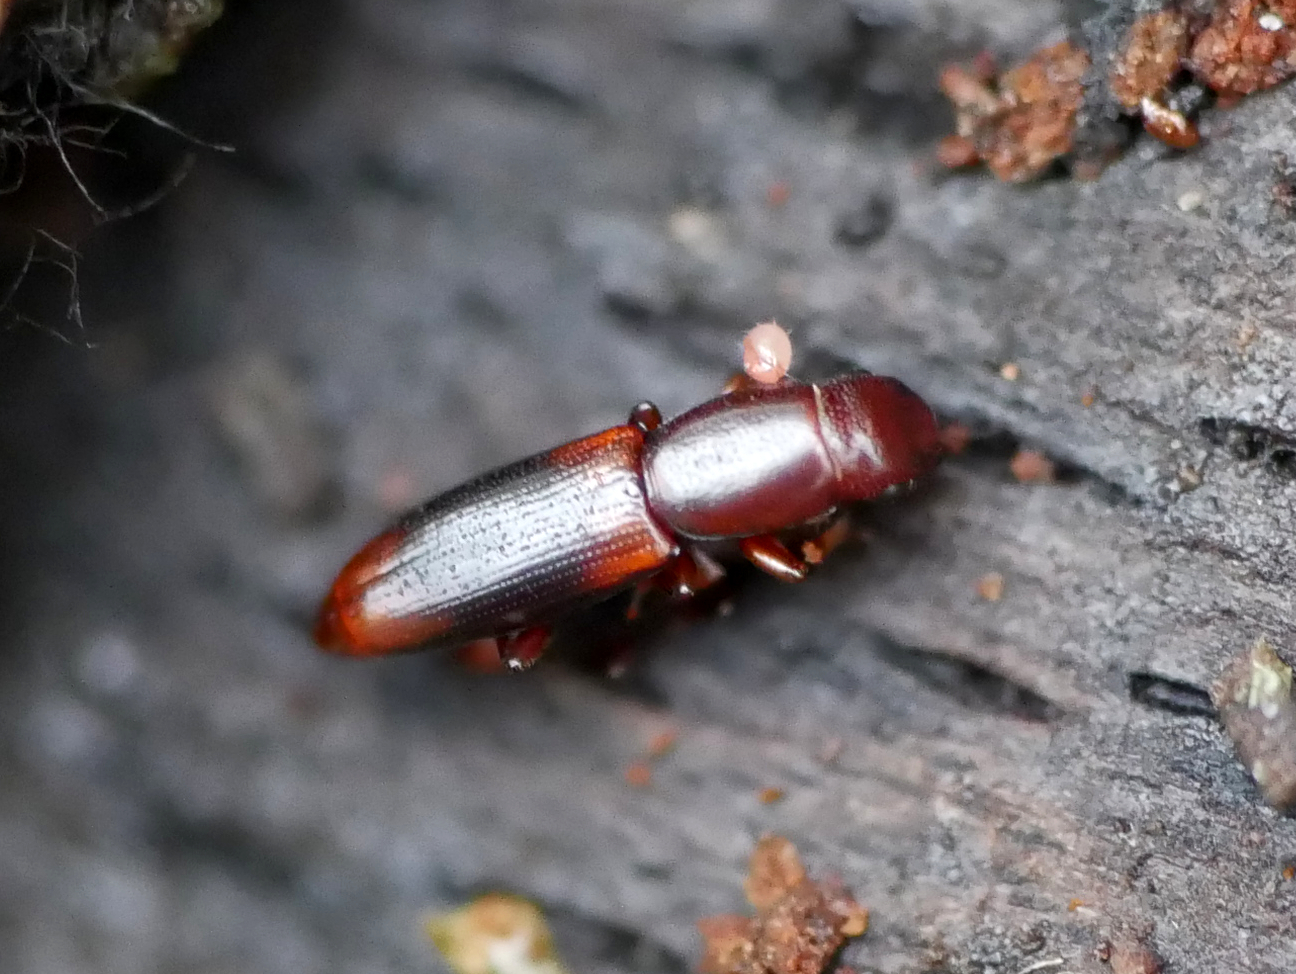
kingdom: Animalia
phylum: Arthropoda
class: Insecta
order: Coleoptera
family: Monotomidae
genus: Rhizophagus
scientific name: Rhizophagus dispar
